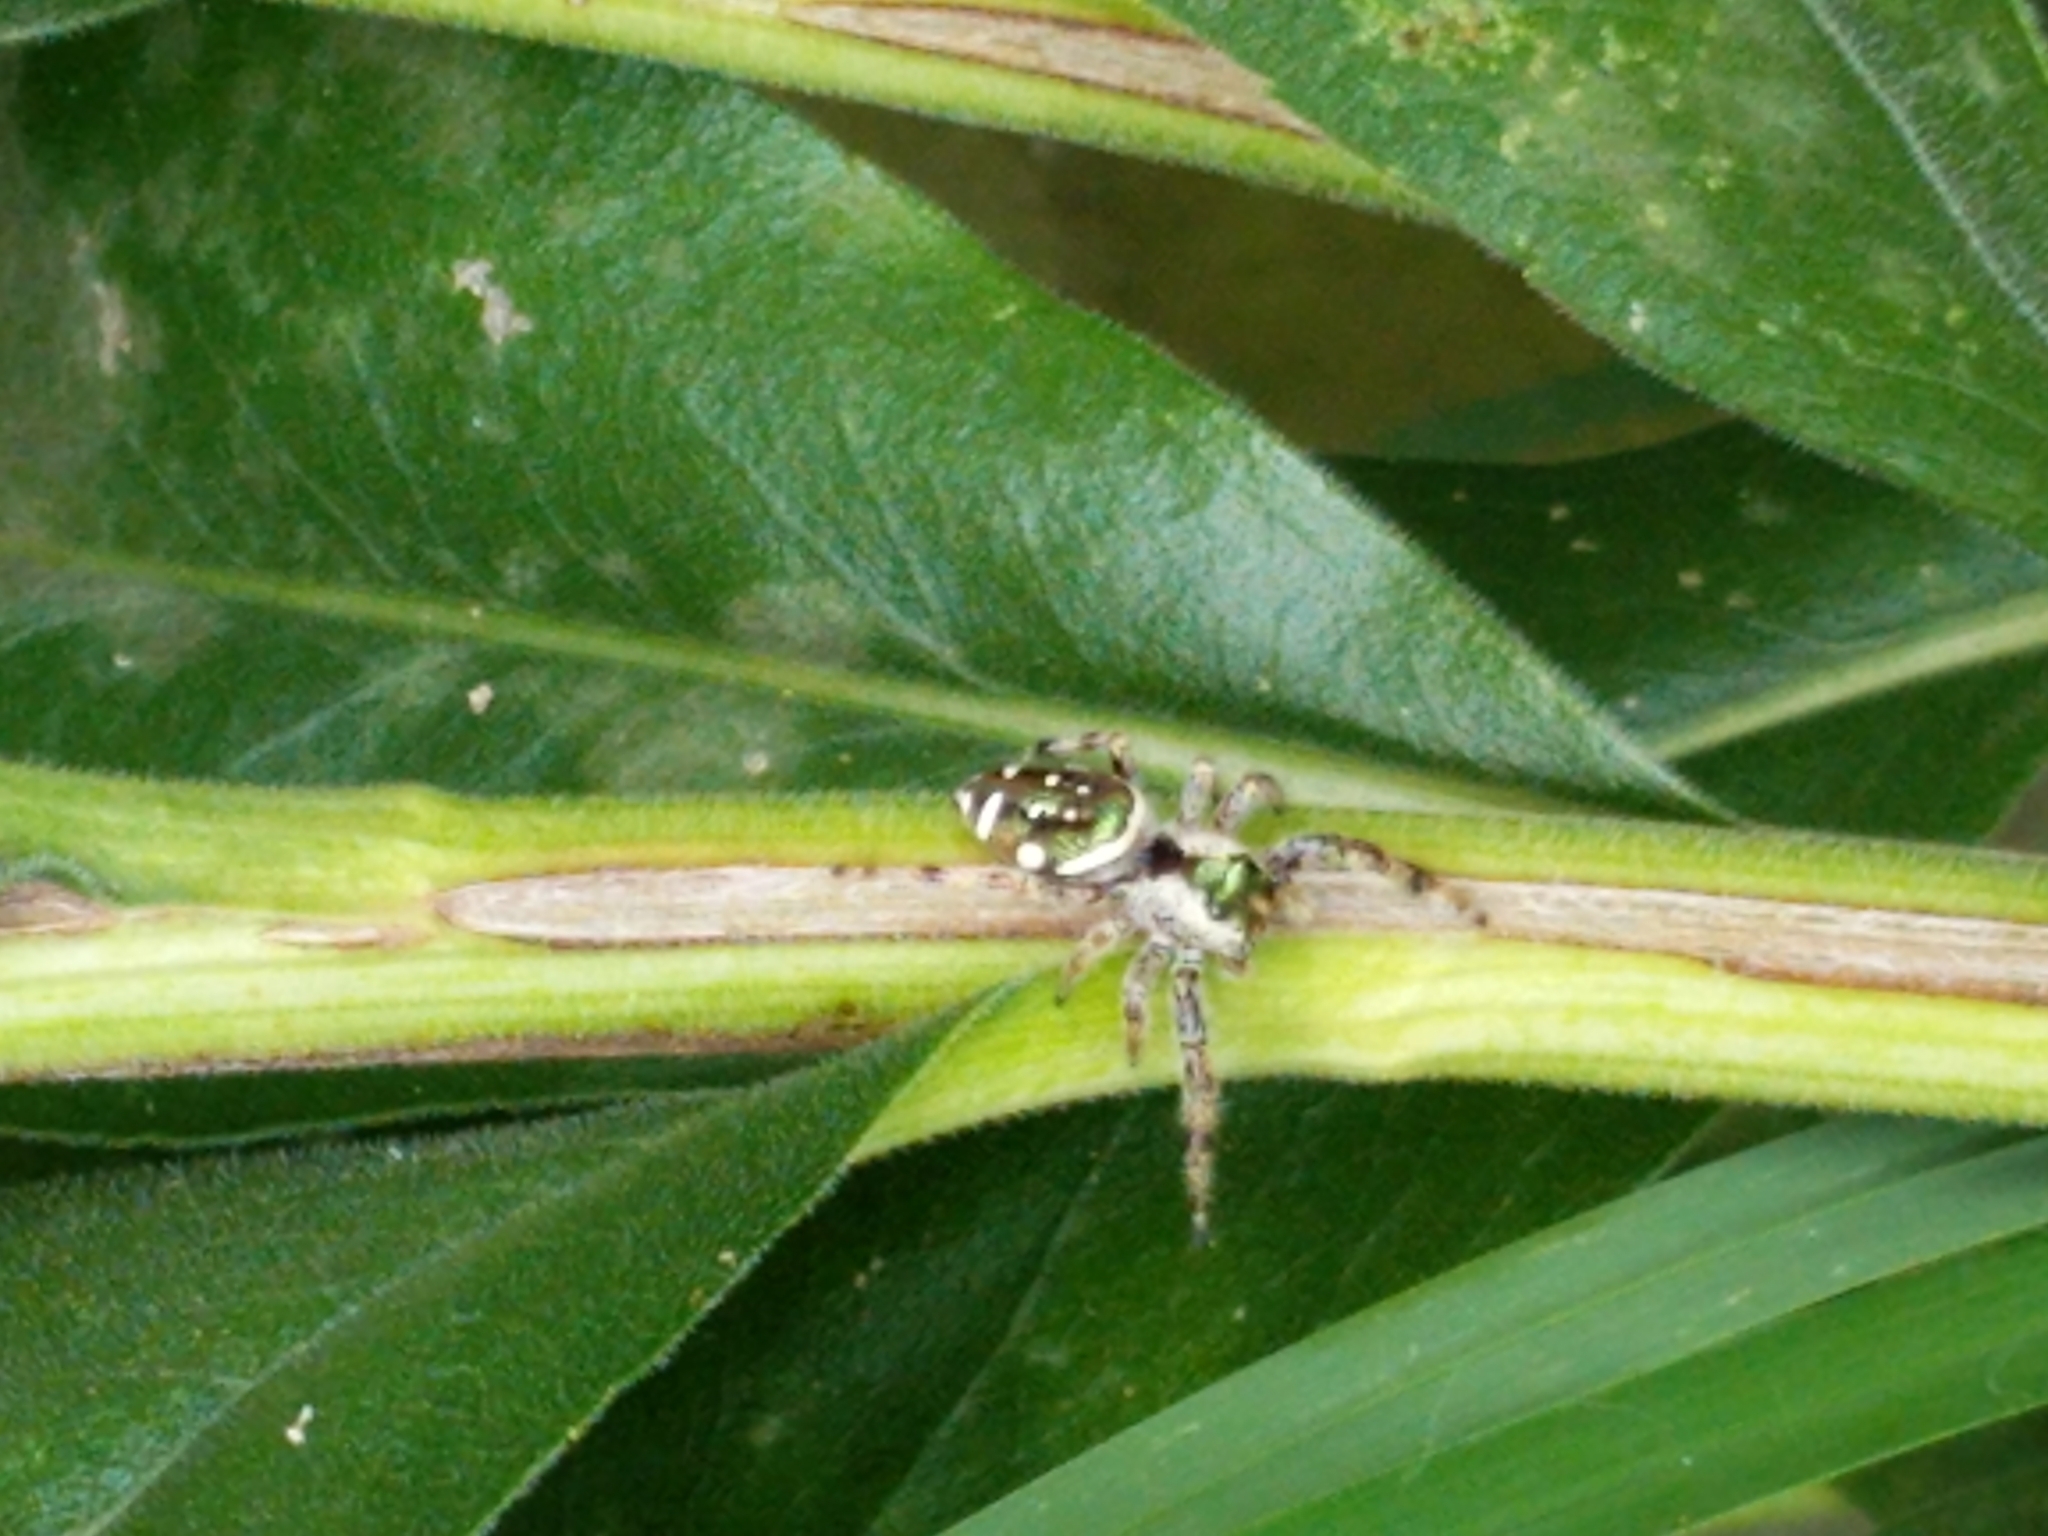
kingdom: Animalia
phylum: Arthropoda
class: Arachnida
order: Araneae
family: Salticidae
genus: Paraphidippus
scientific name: Paraphidippus aurantius
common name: Jumping spiders
